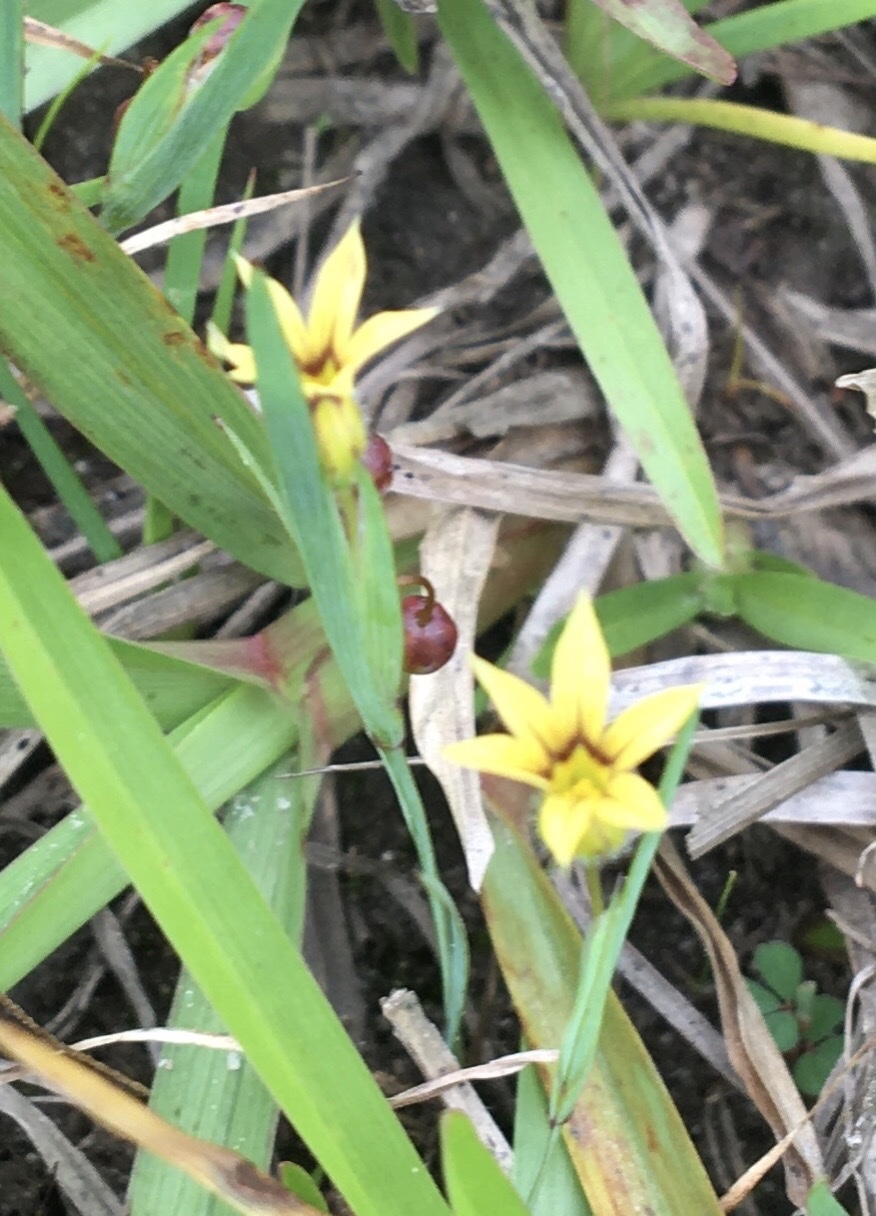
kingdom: Plantae
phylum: Tracheophyta
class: Liliopsida
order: Asparagales
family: Iridaceae
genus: Sisyrinchium
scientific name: Sisyrinchium micranthum
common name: Bermuda pigroot
